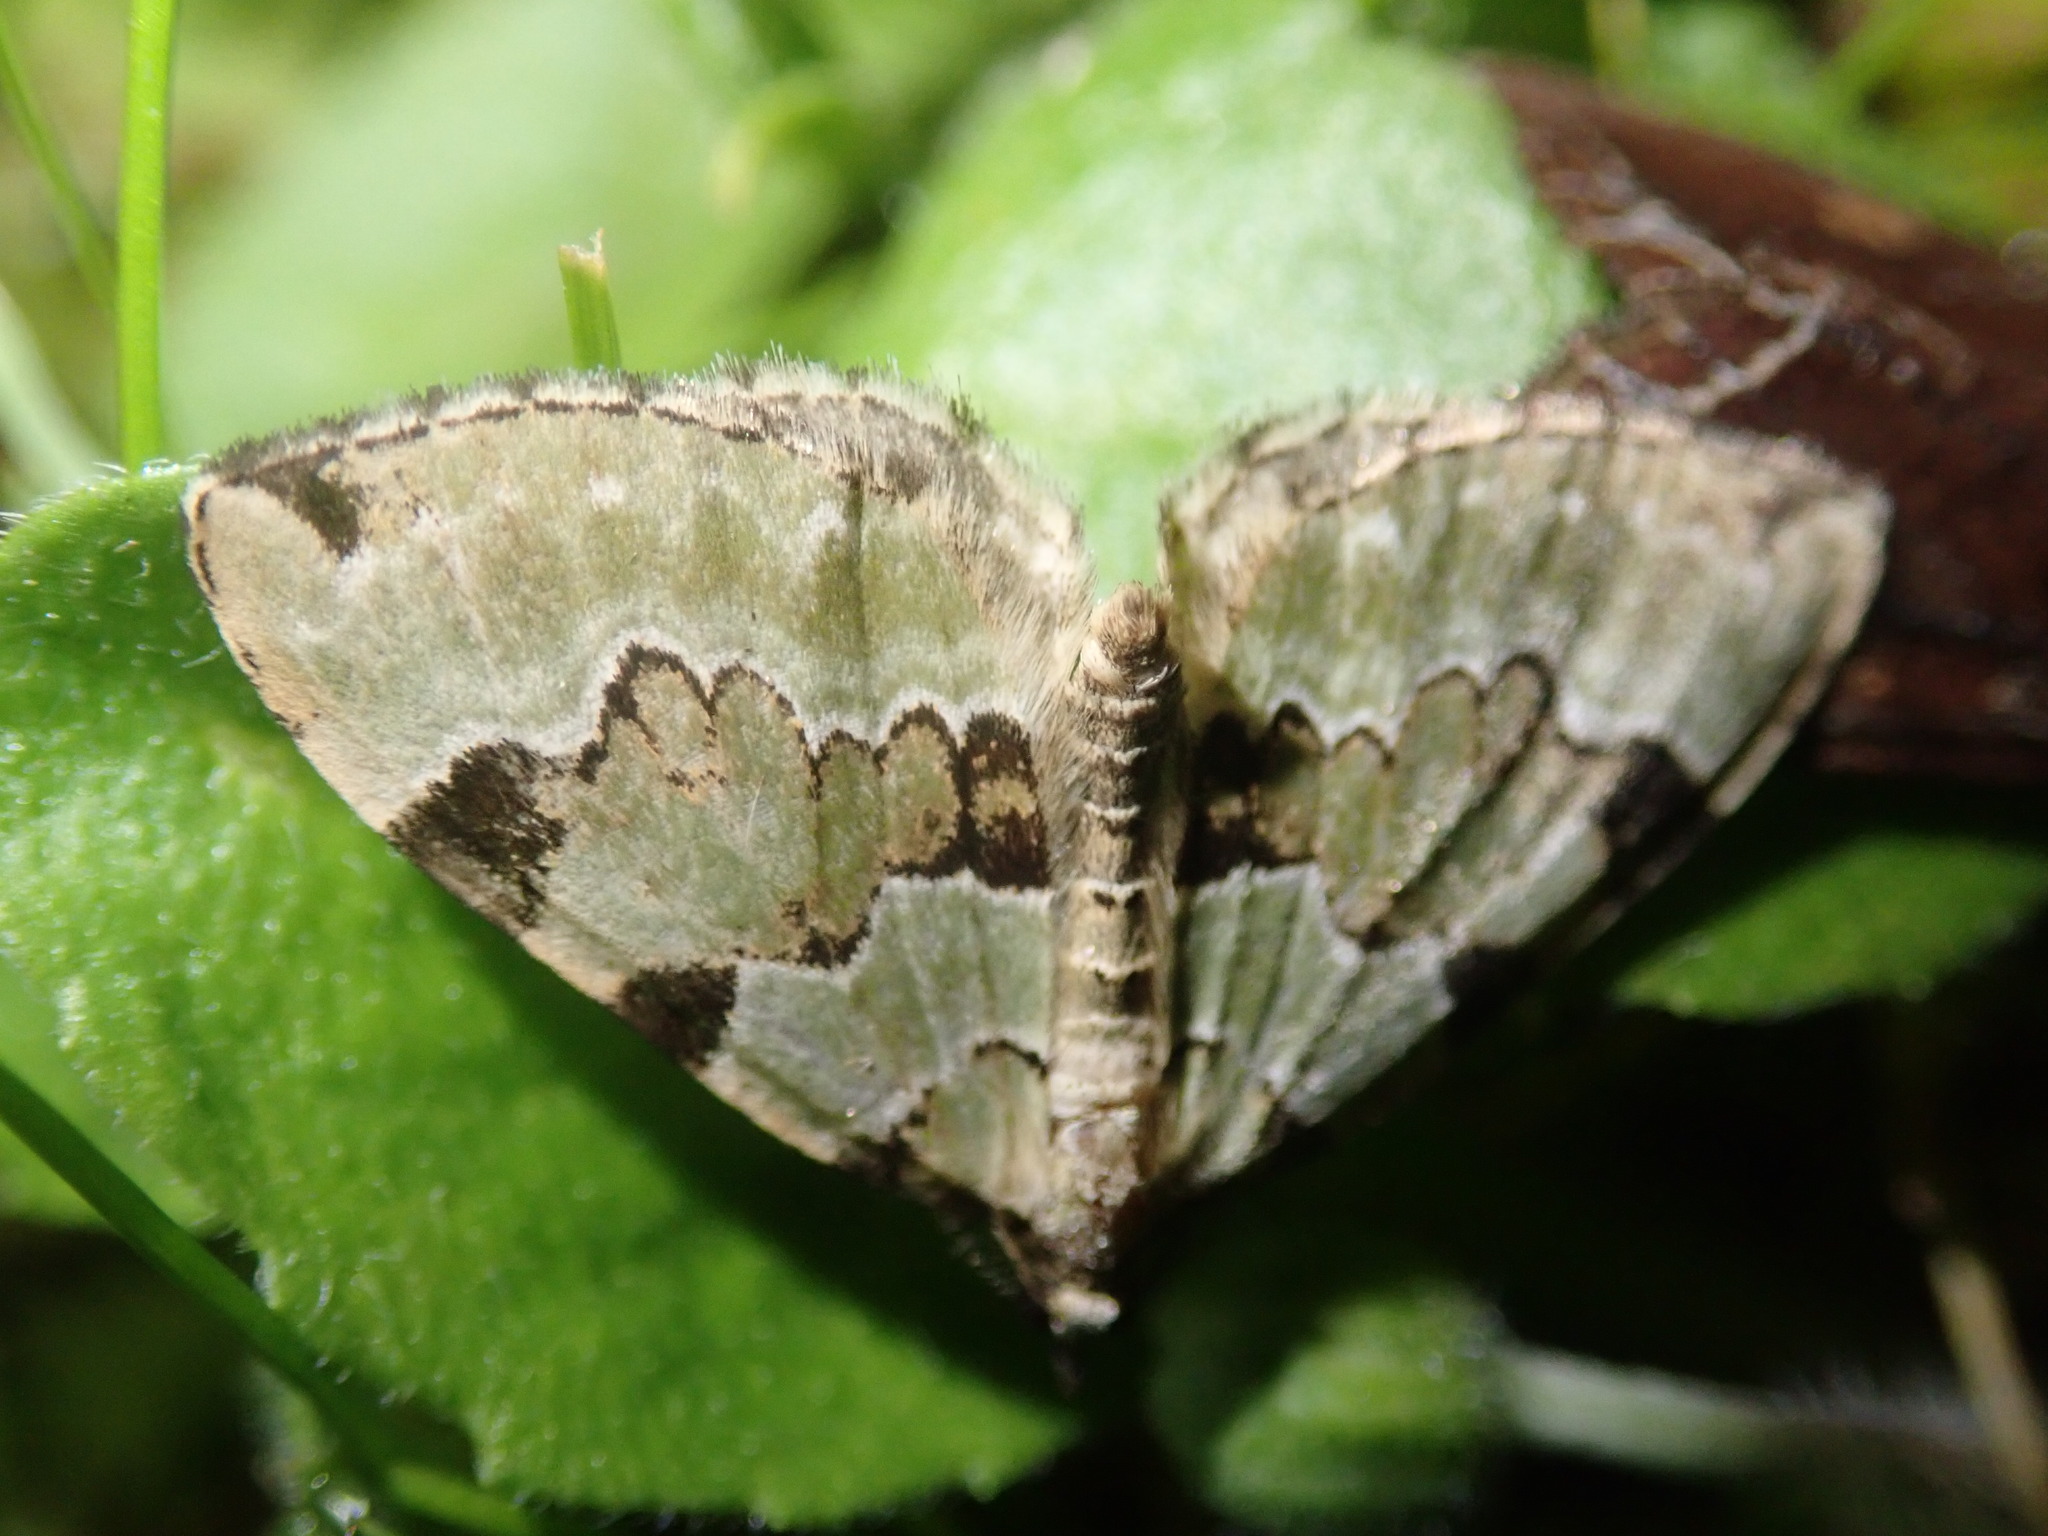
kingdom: Animalia
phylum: Arthropoda
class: Insecta
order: Lepidoptera
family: Geometridae
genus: Colostygia
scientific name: Colostygia pectinataria
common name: Green carpet
